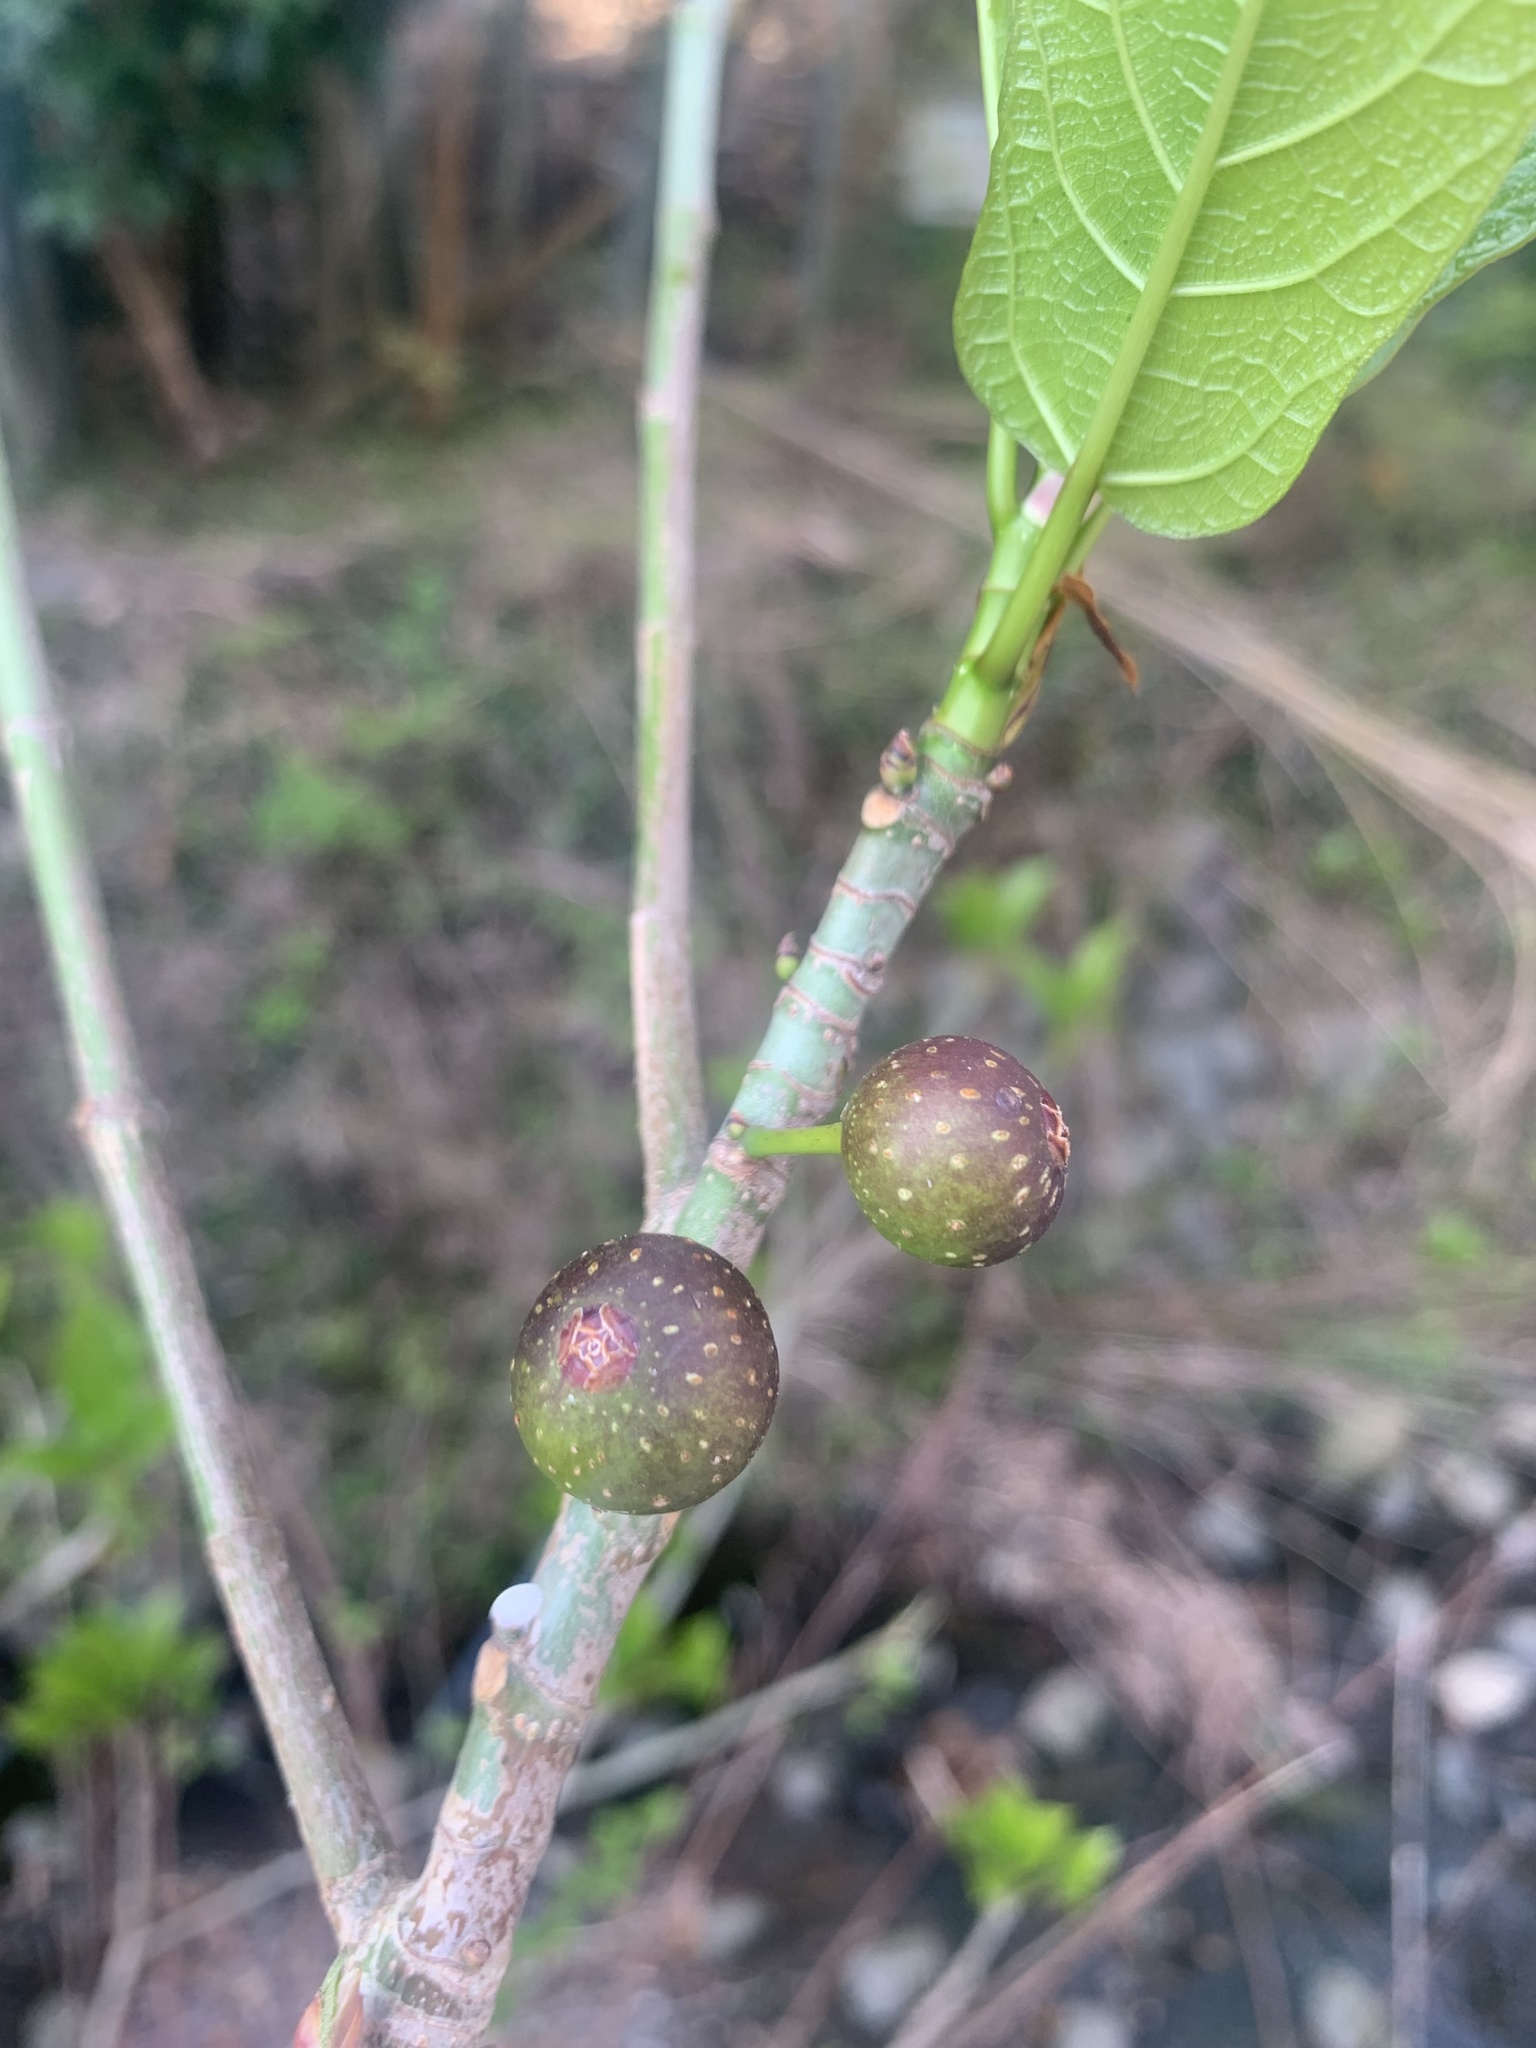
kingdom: Plantae
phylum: Tracheophyta
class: Magnoliopsida
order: Rosales
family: Moraceae
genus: Ficus
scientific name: Ficus erecta
